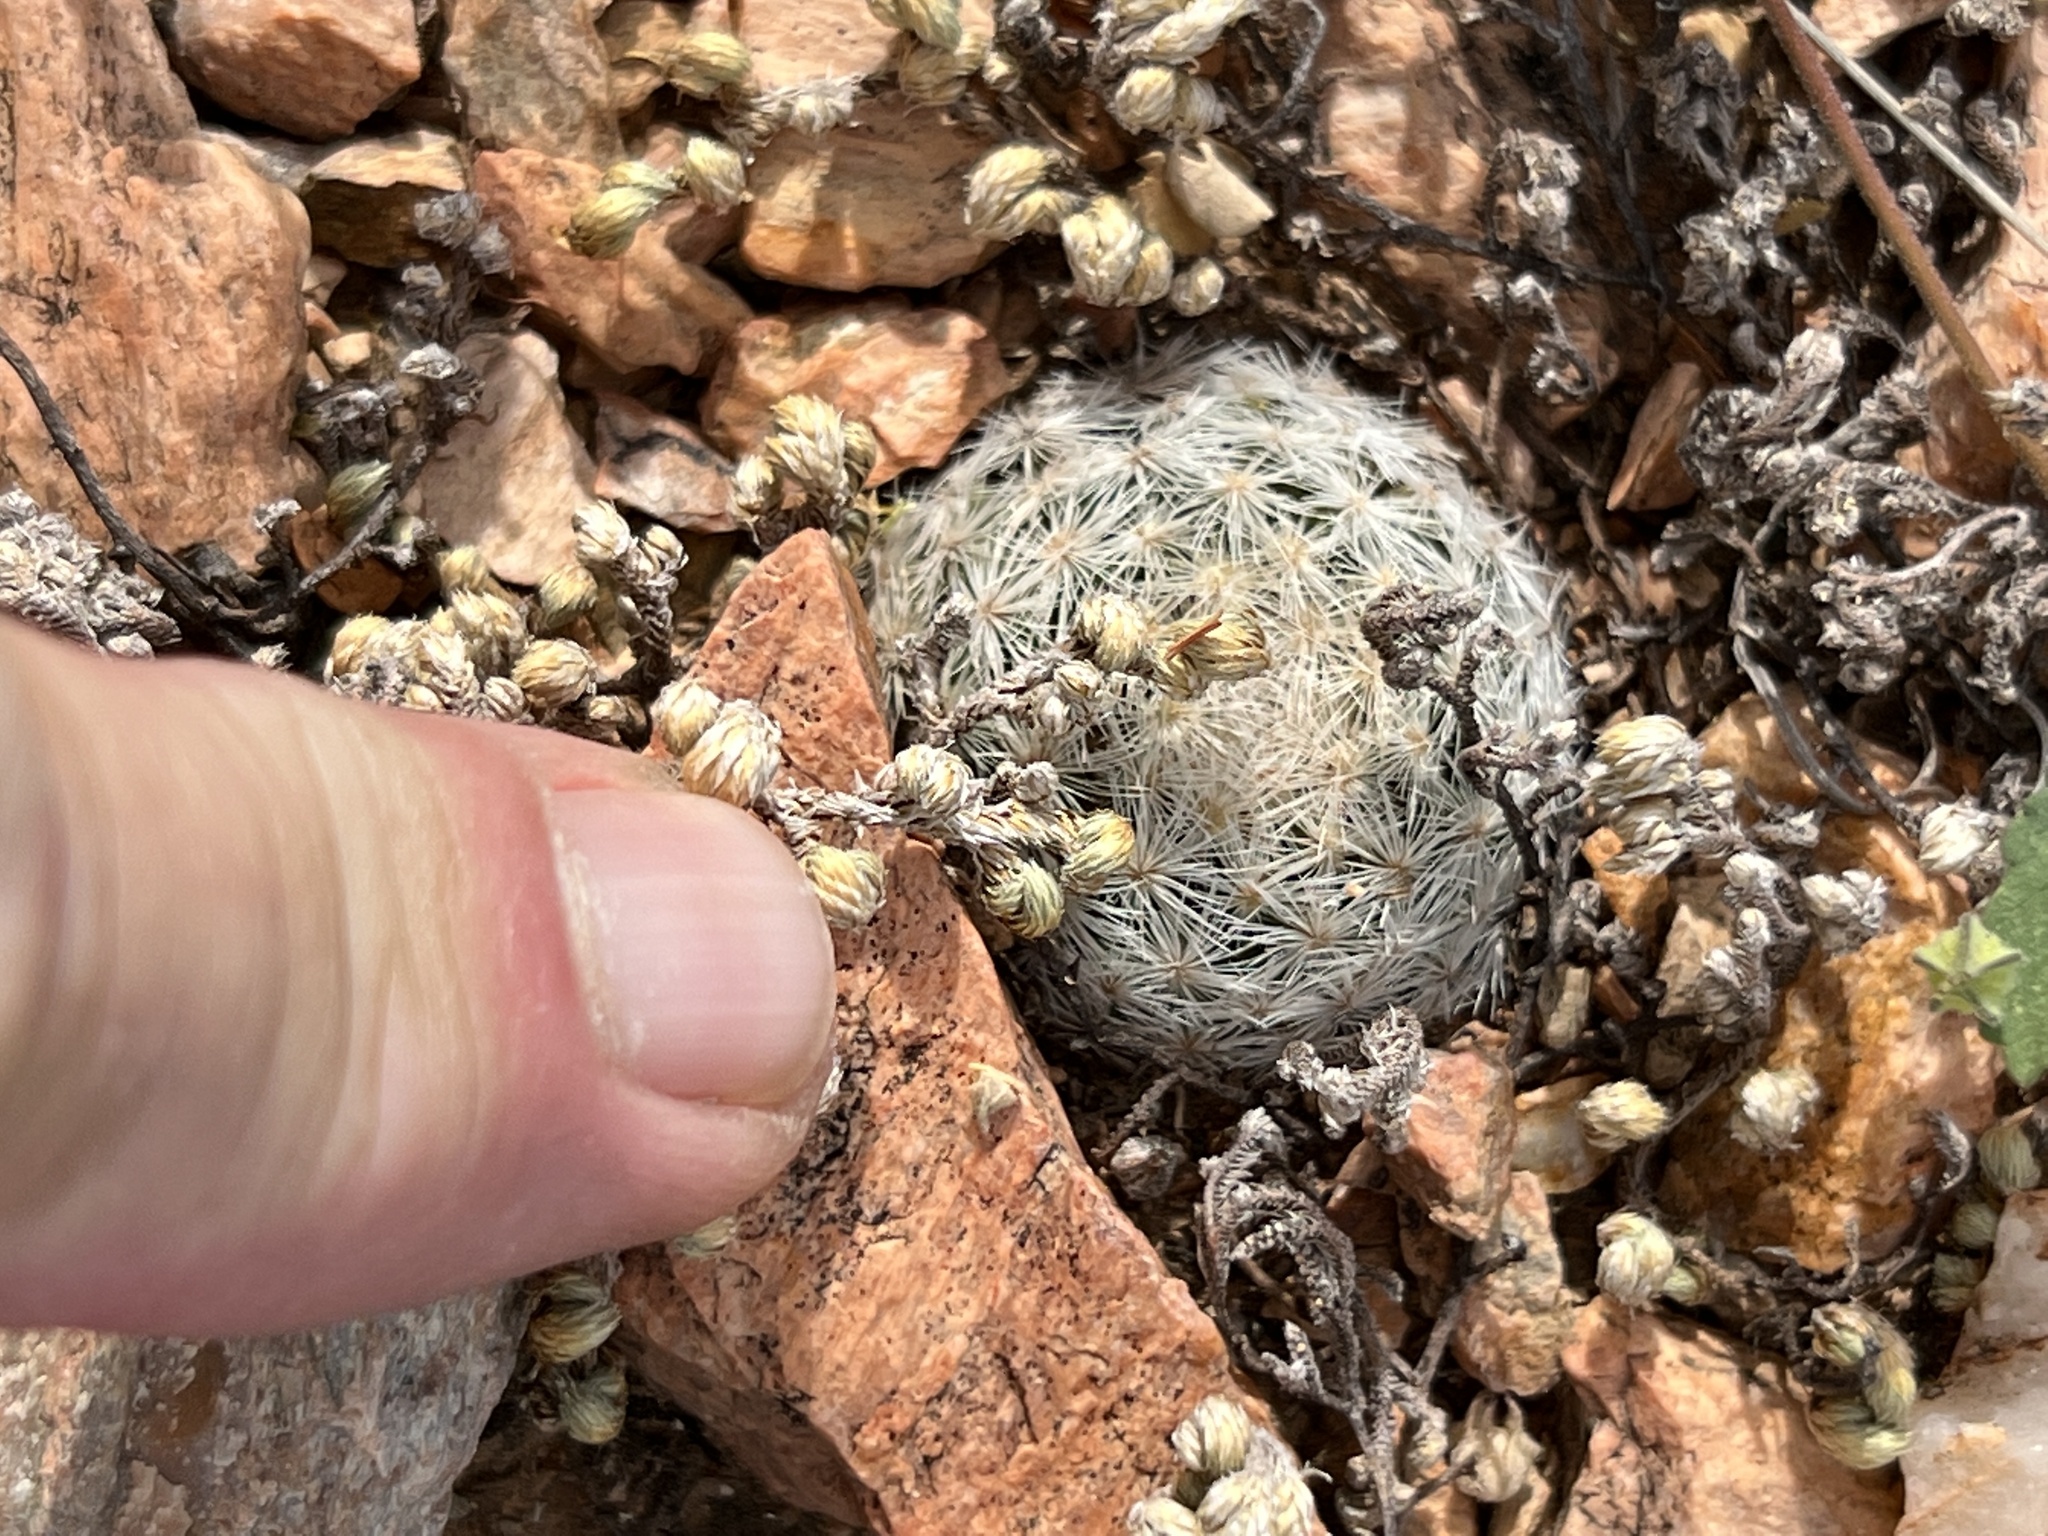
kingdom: Plantae
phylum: Tracheophyta
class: Magnoliopsida
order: Caryophyllales
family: Cactaceae
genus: Mammillaria
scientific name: Mammillaria lasiacantha
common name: Lace-spine nipple cactus
